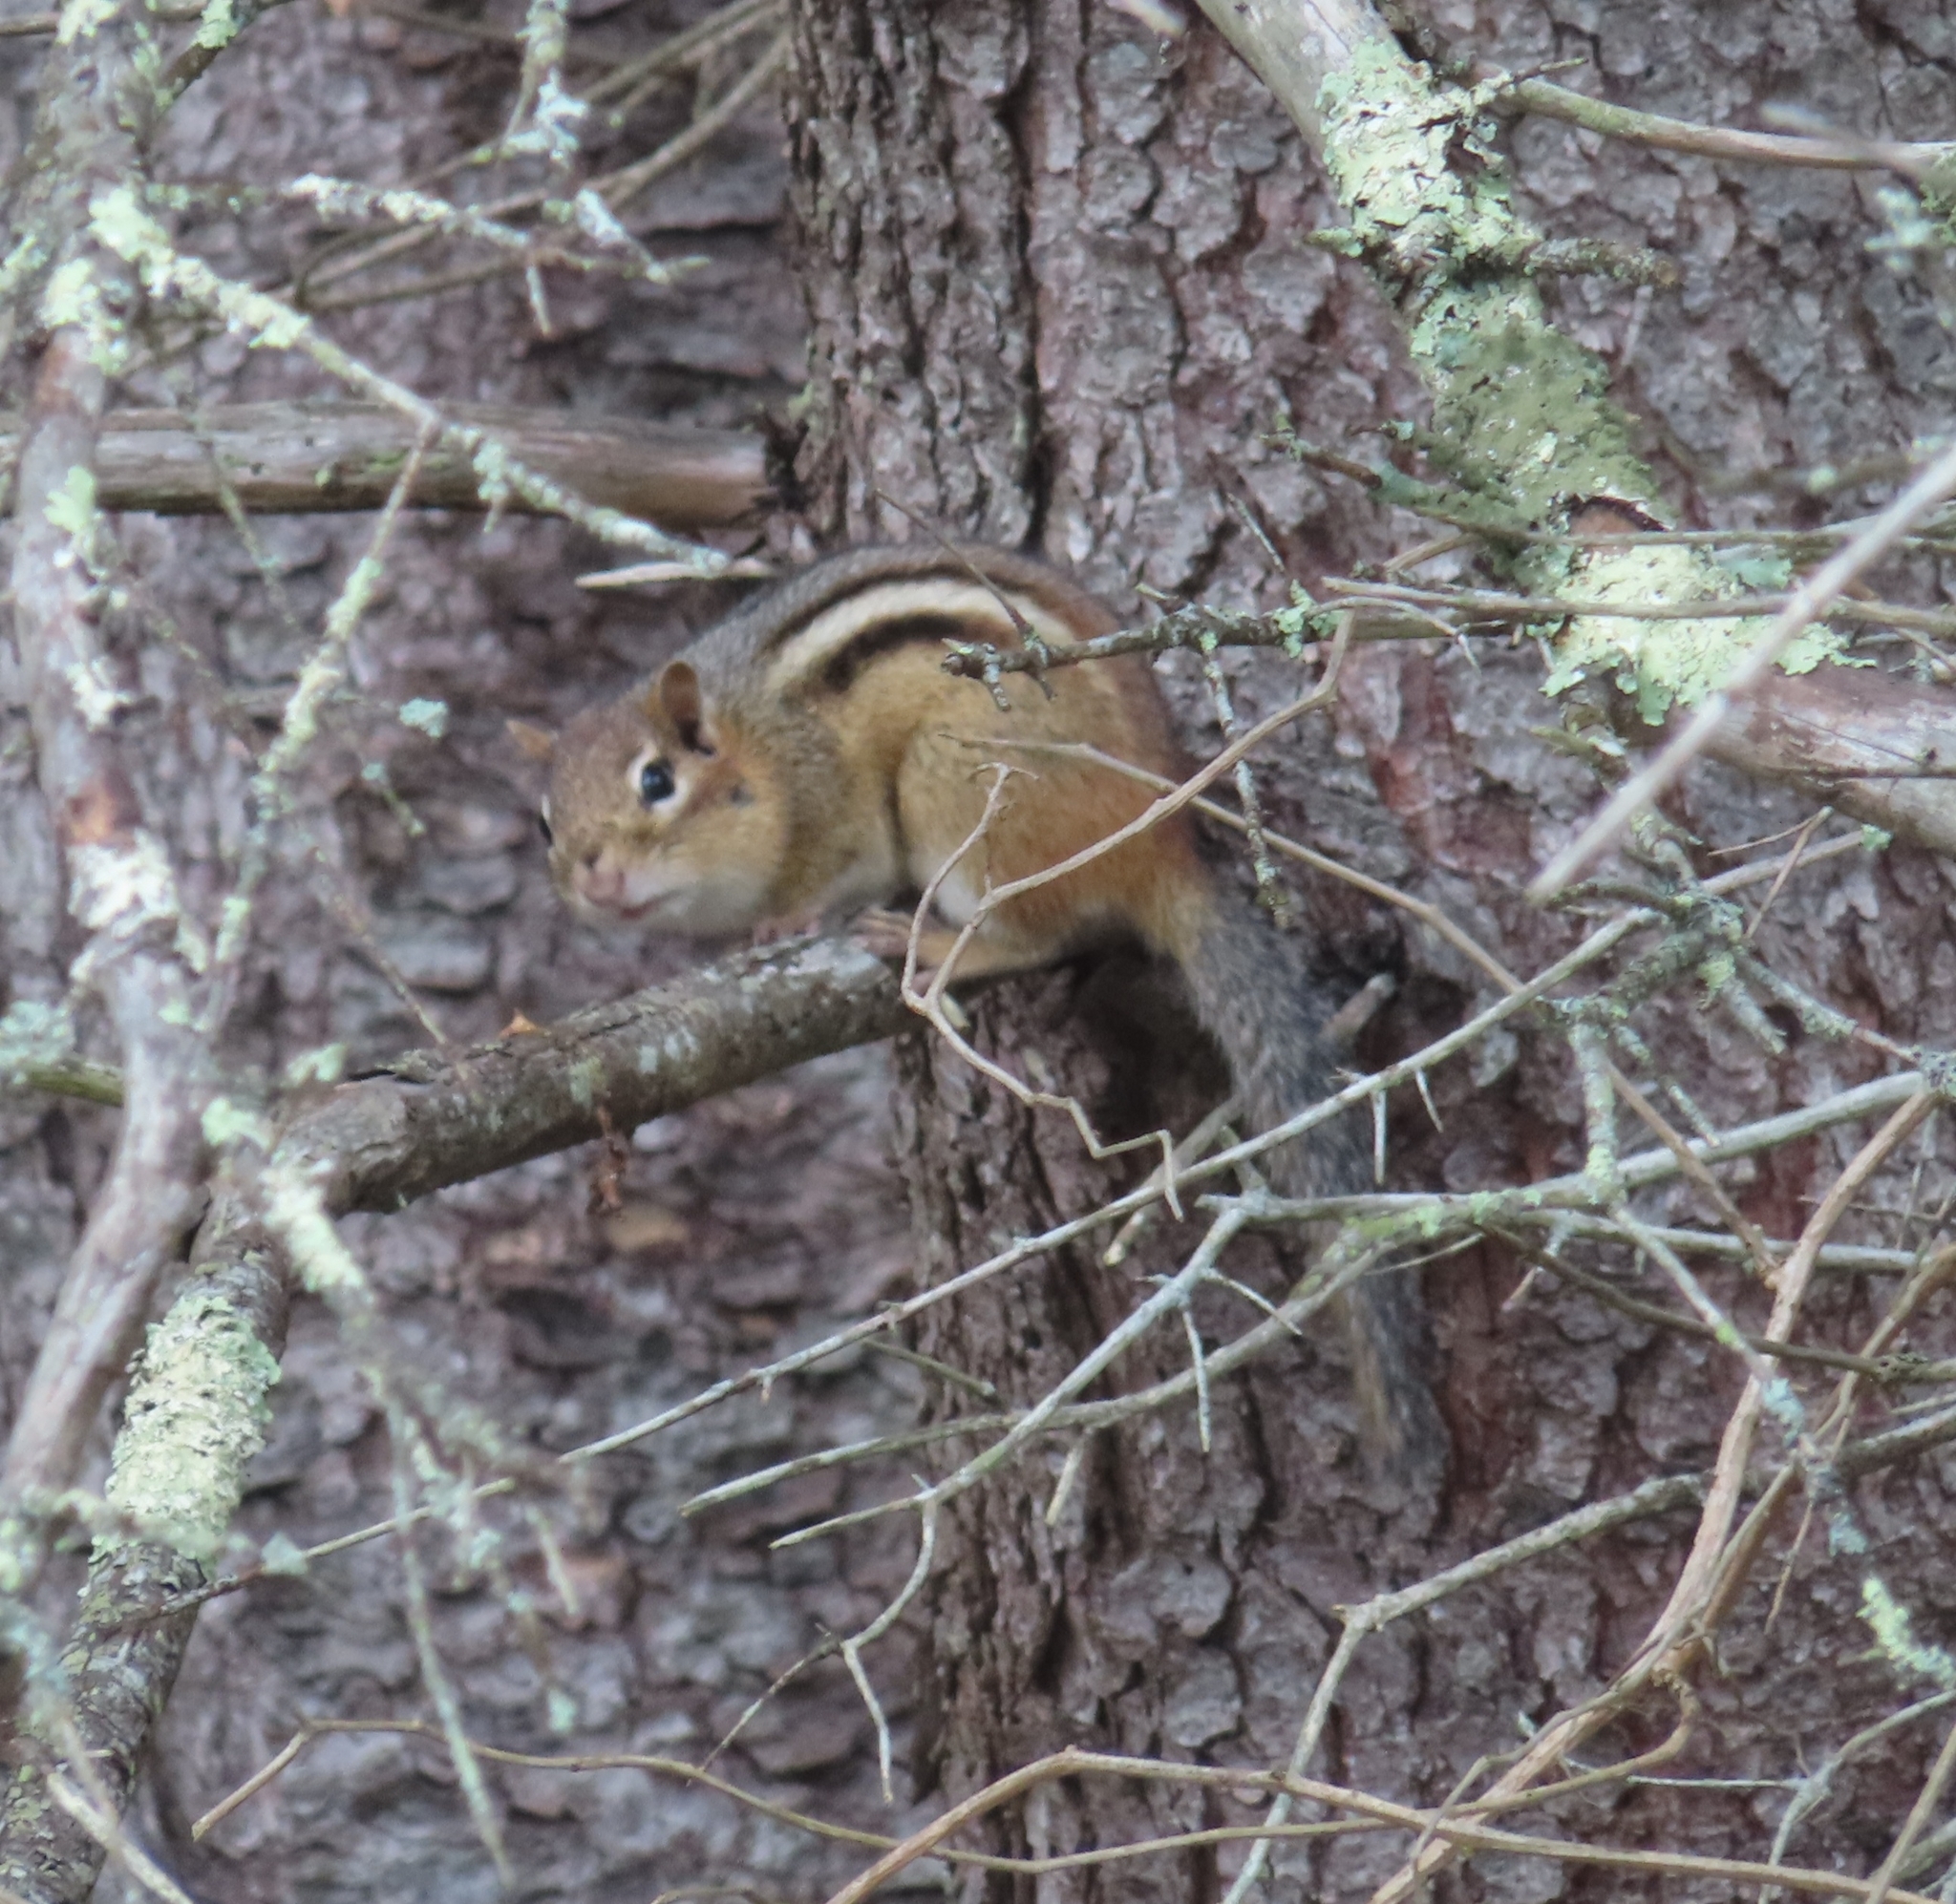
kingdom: Animalia
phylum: Chordata
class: Mammalia
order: Rodentia
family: Sciuridae
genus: Tamias
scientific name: Tamias striatus
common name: Eastern chipmunk
